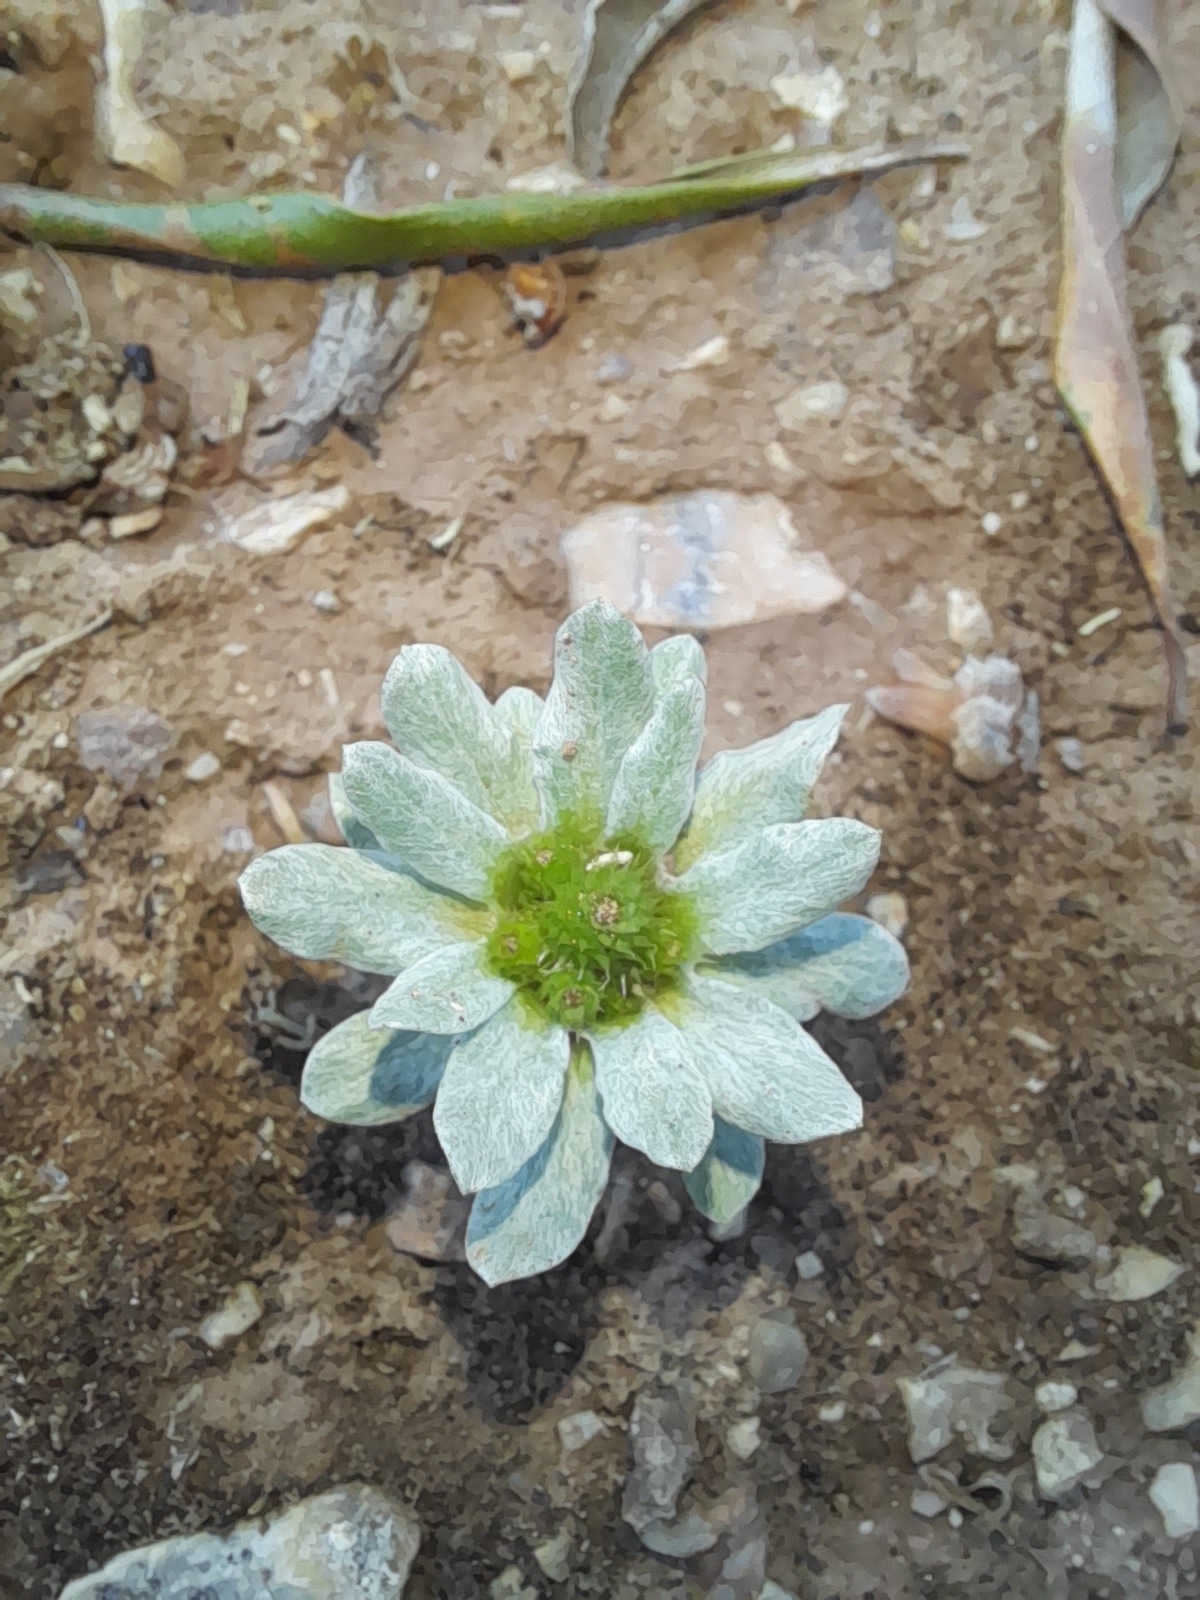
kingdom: Plantae
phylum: Tracheophyta
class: Magnoliopsida
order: Asterales
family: Asteraceae
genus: Filago
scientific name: Filago pygmaea
